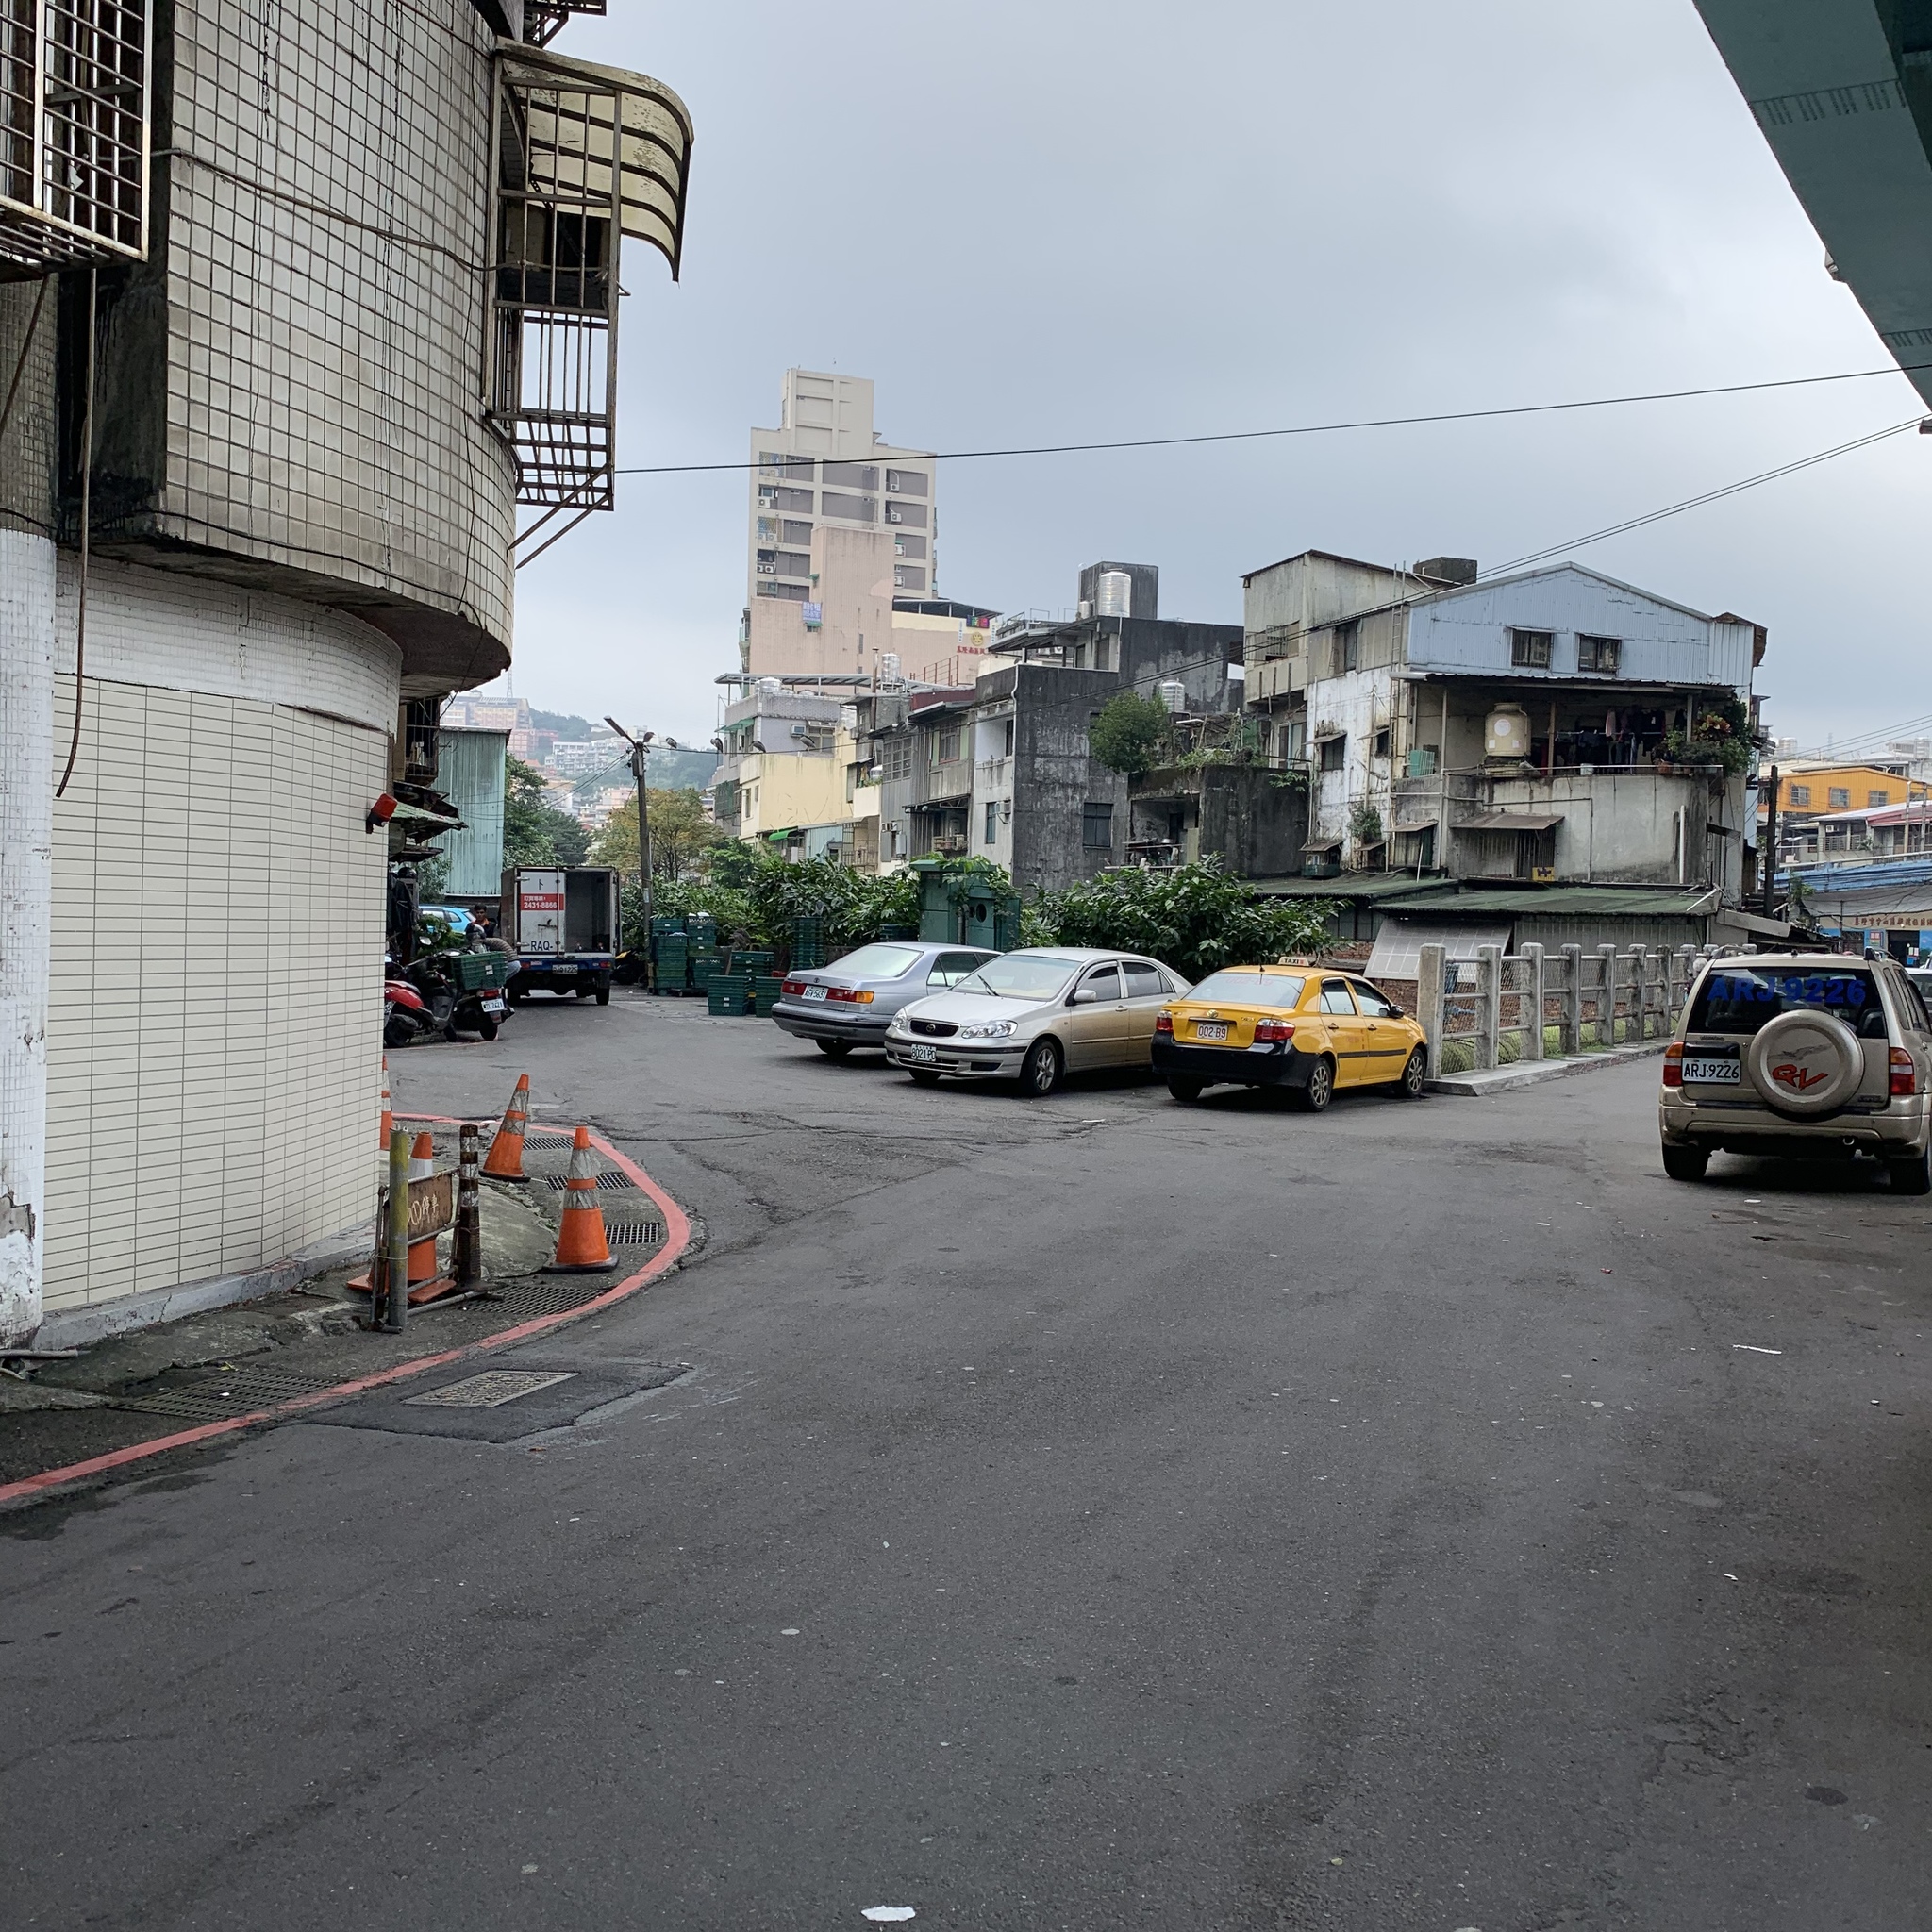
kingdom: Animalia
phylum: Chordata
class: Aves
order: Pelecaniformes
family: Ardeidae
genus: Nycticorax
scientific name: Nycticorax nycticorax
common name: Black-crowned night heron
